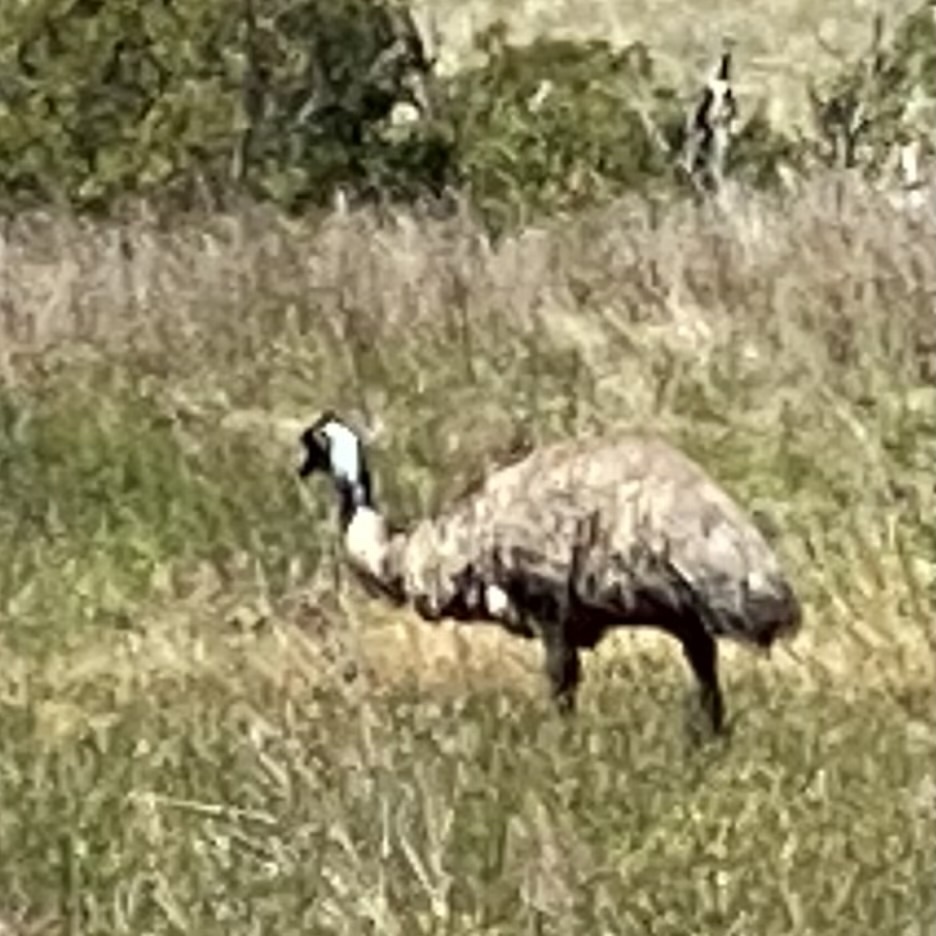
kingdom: Animalia
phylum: Chordata
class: Aves
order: Casuariiformes
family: Dromaiidae
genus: Dromaius
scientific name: Dromaius novaehollandiae
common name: Emu
